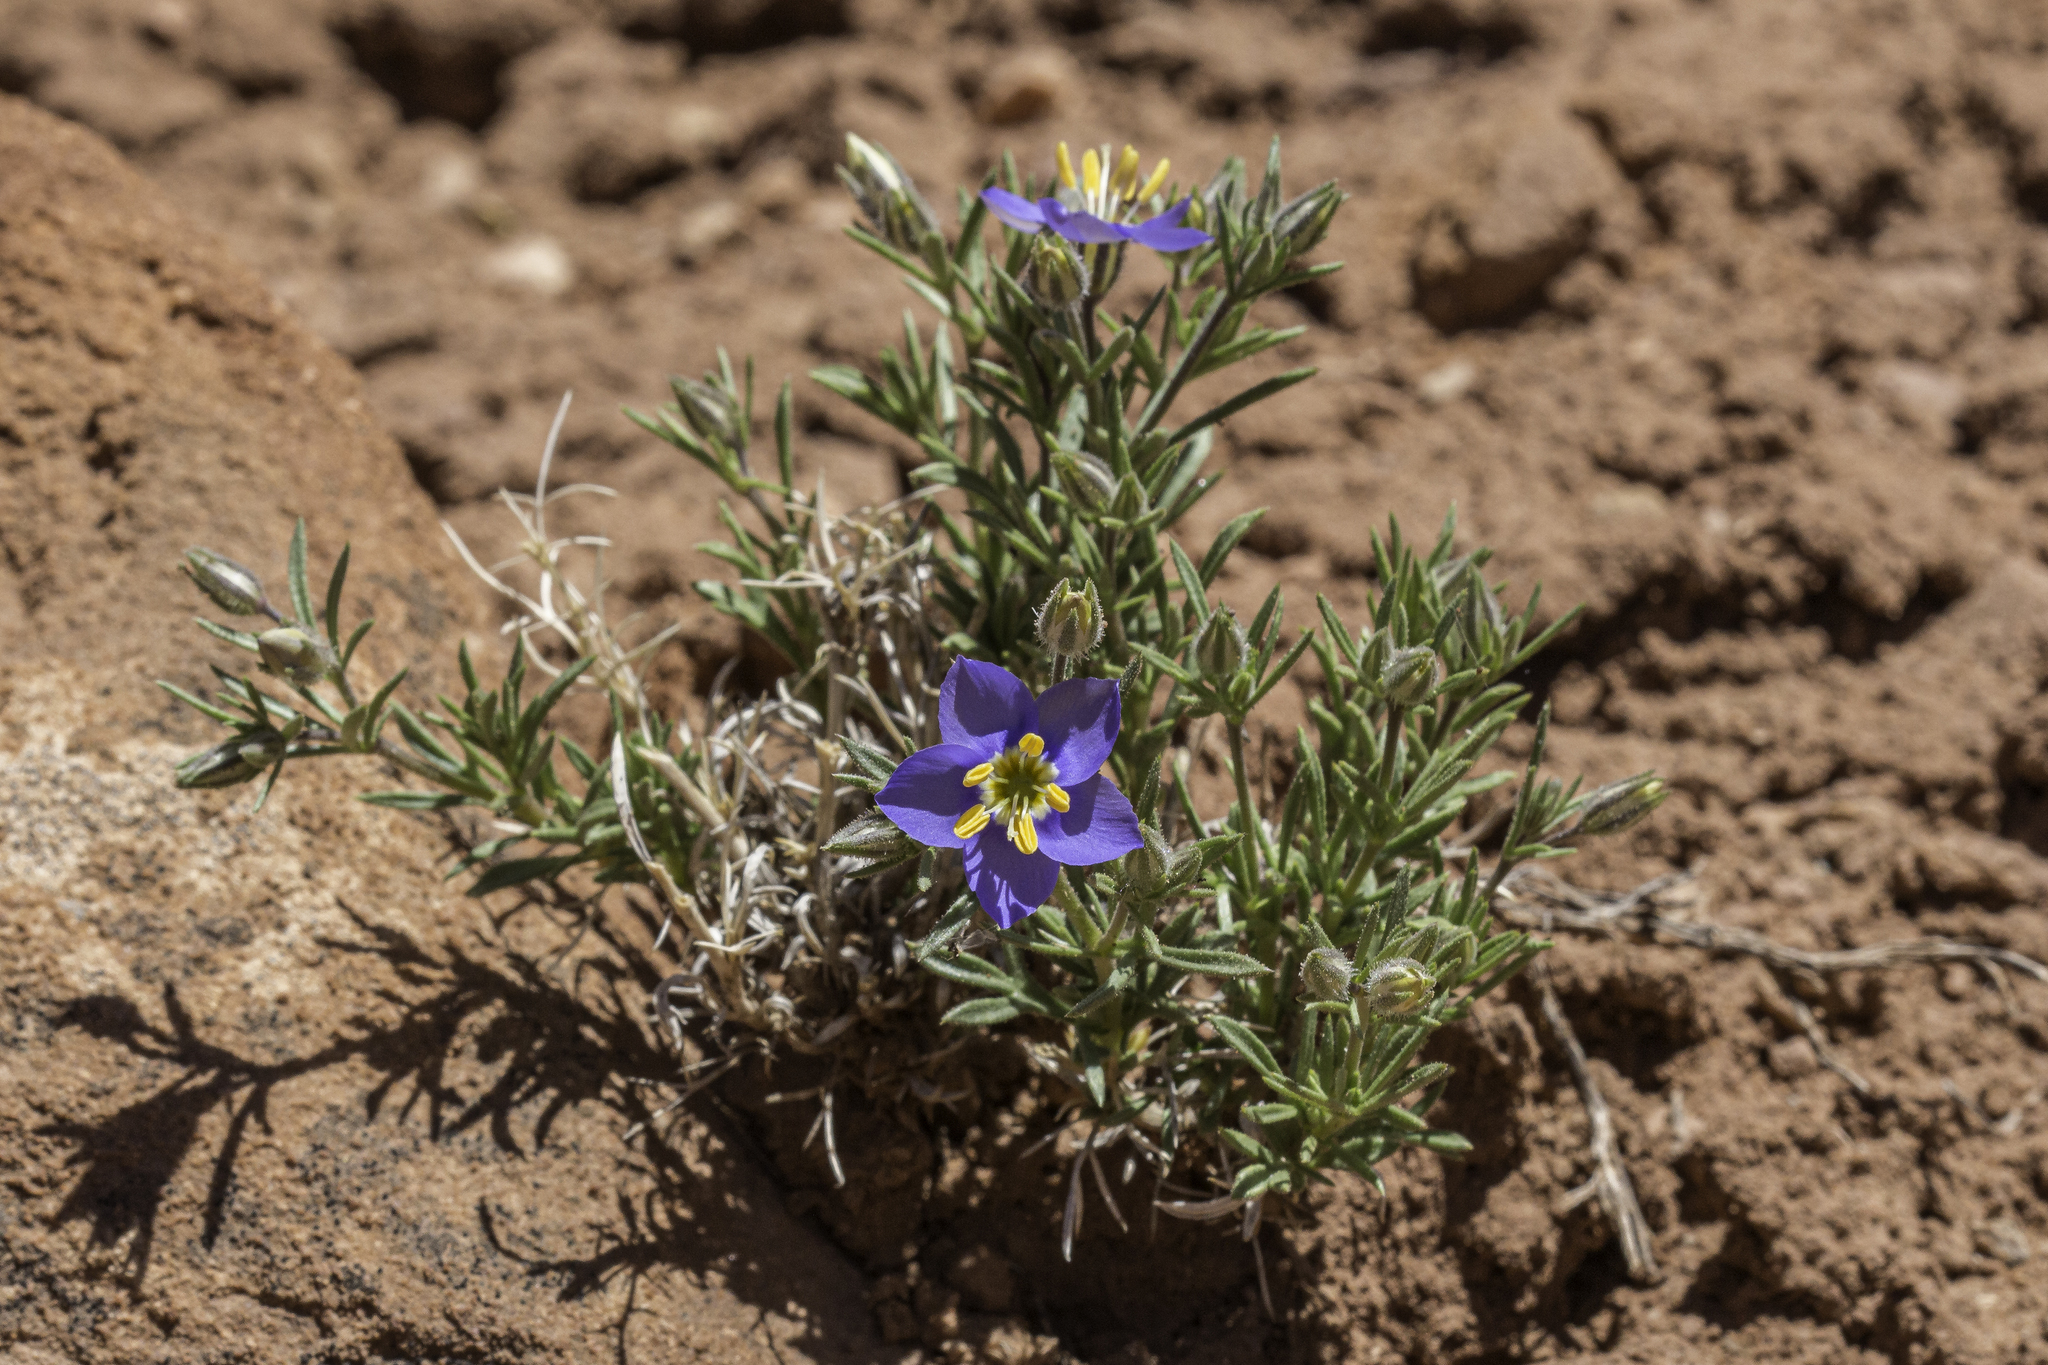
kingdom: Plantae
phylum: Tracheophyta
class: Magnoliopsida
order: Ericales
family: Polemoniaceae
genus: Giliastrum
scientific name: Giliastrum acerosum
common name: Bluebowls
